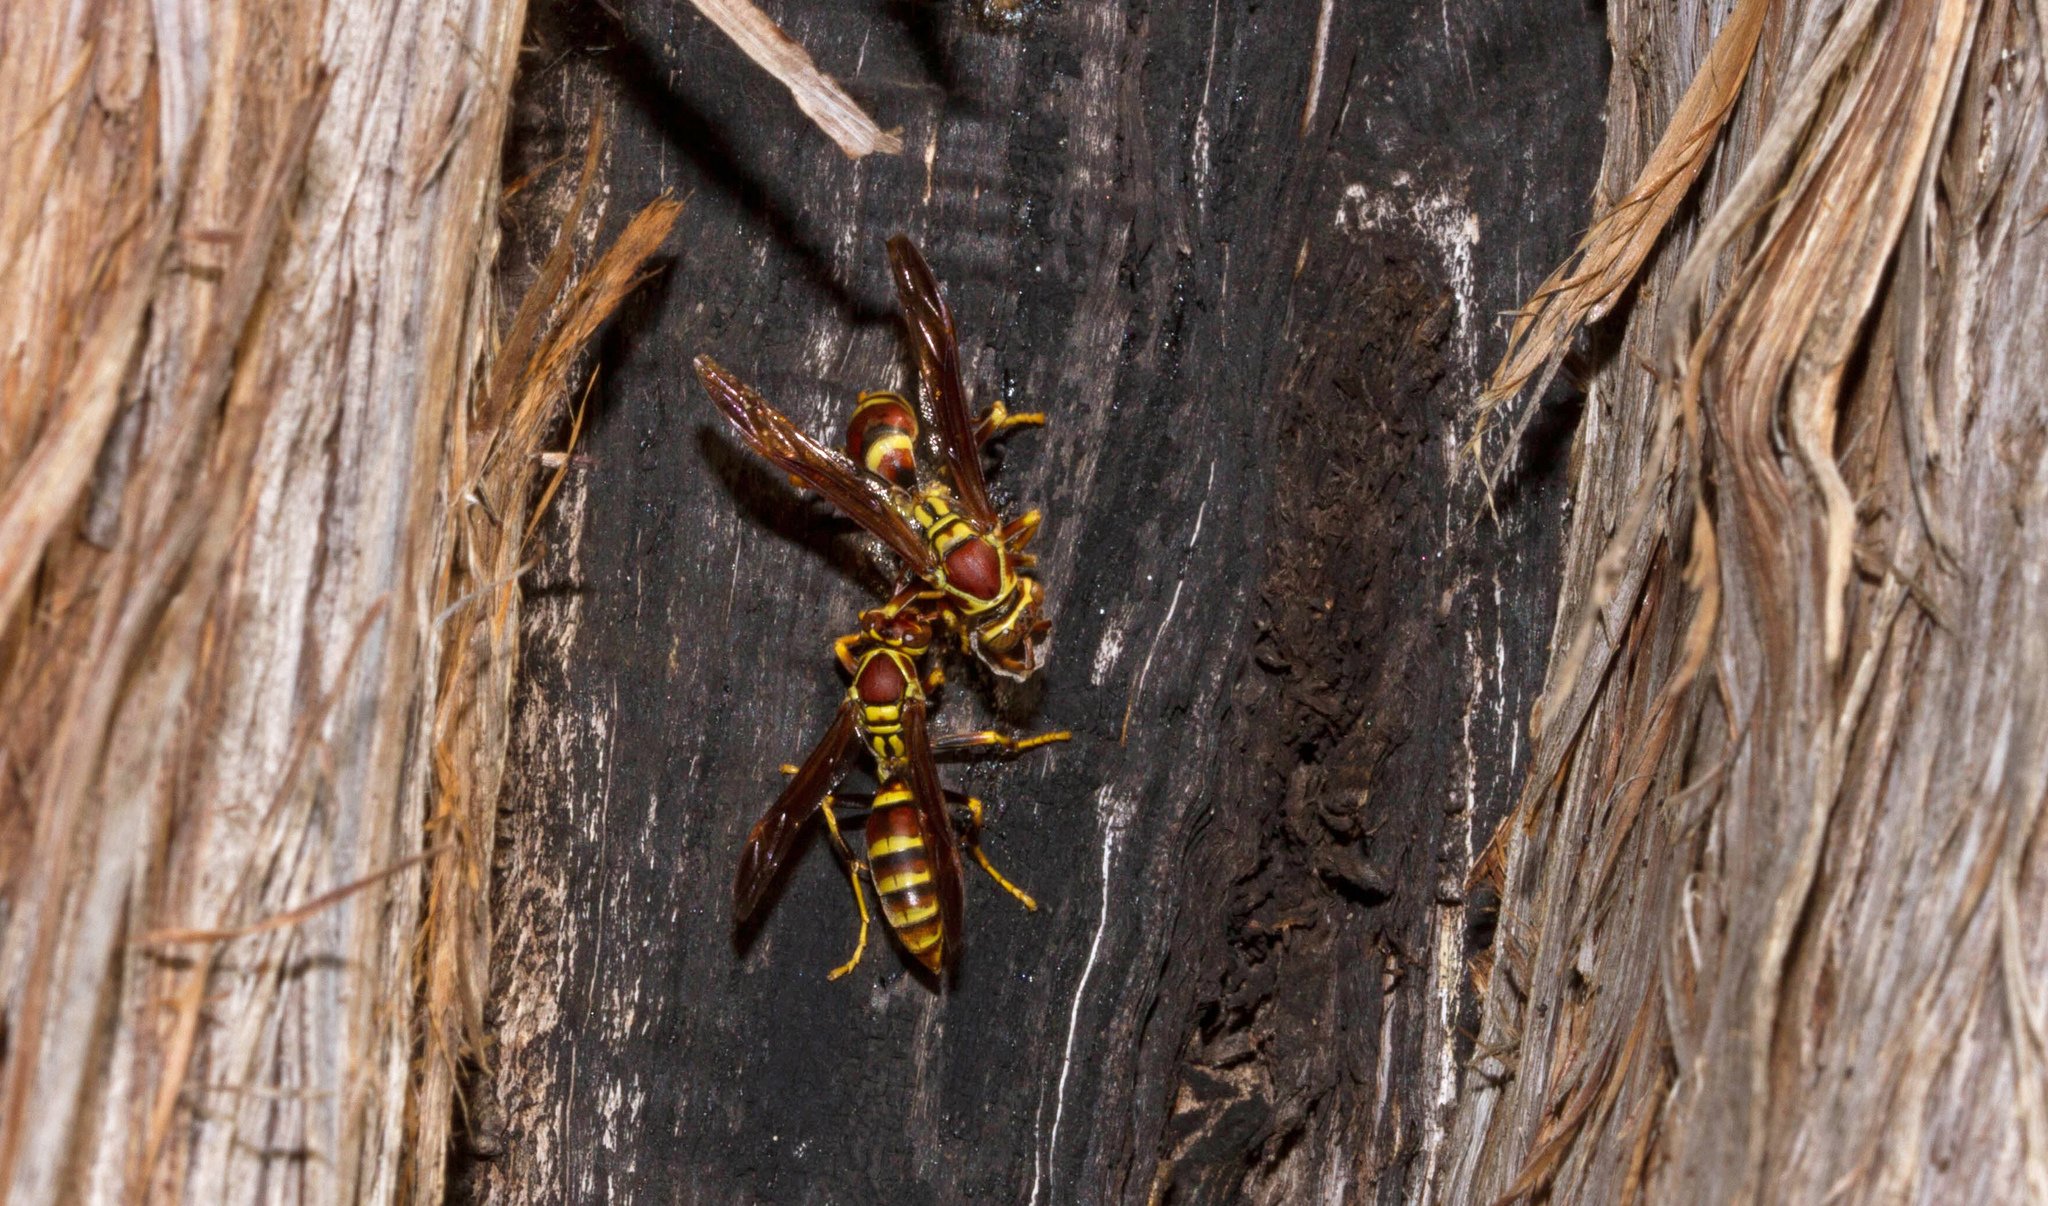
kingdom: Animalia
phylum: Arthropoda
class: Insecta
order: Hymenoptera
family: Eumenidae
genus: Polistes
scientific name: Polistes exclamans
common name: Paper wasp
